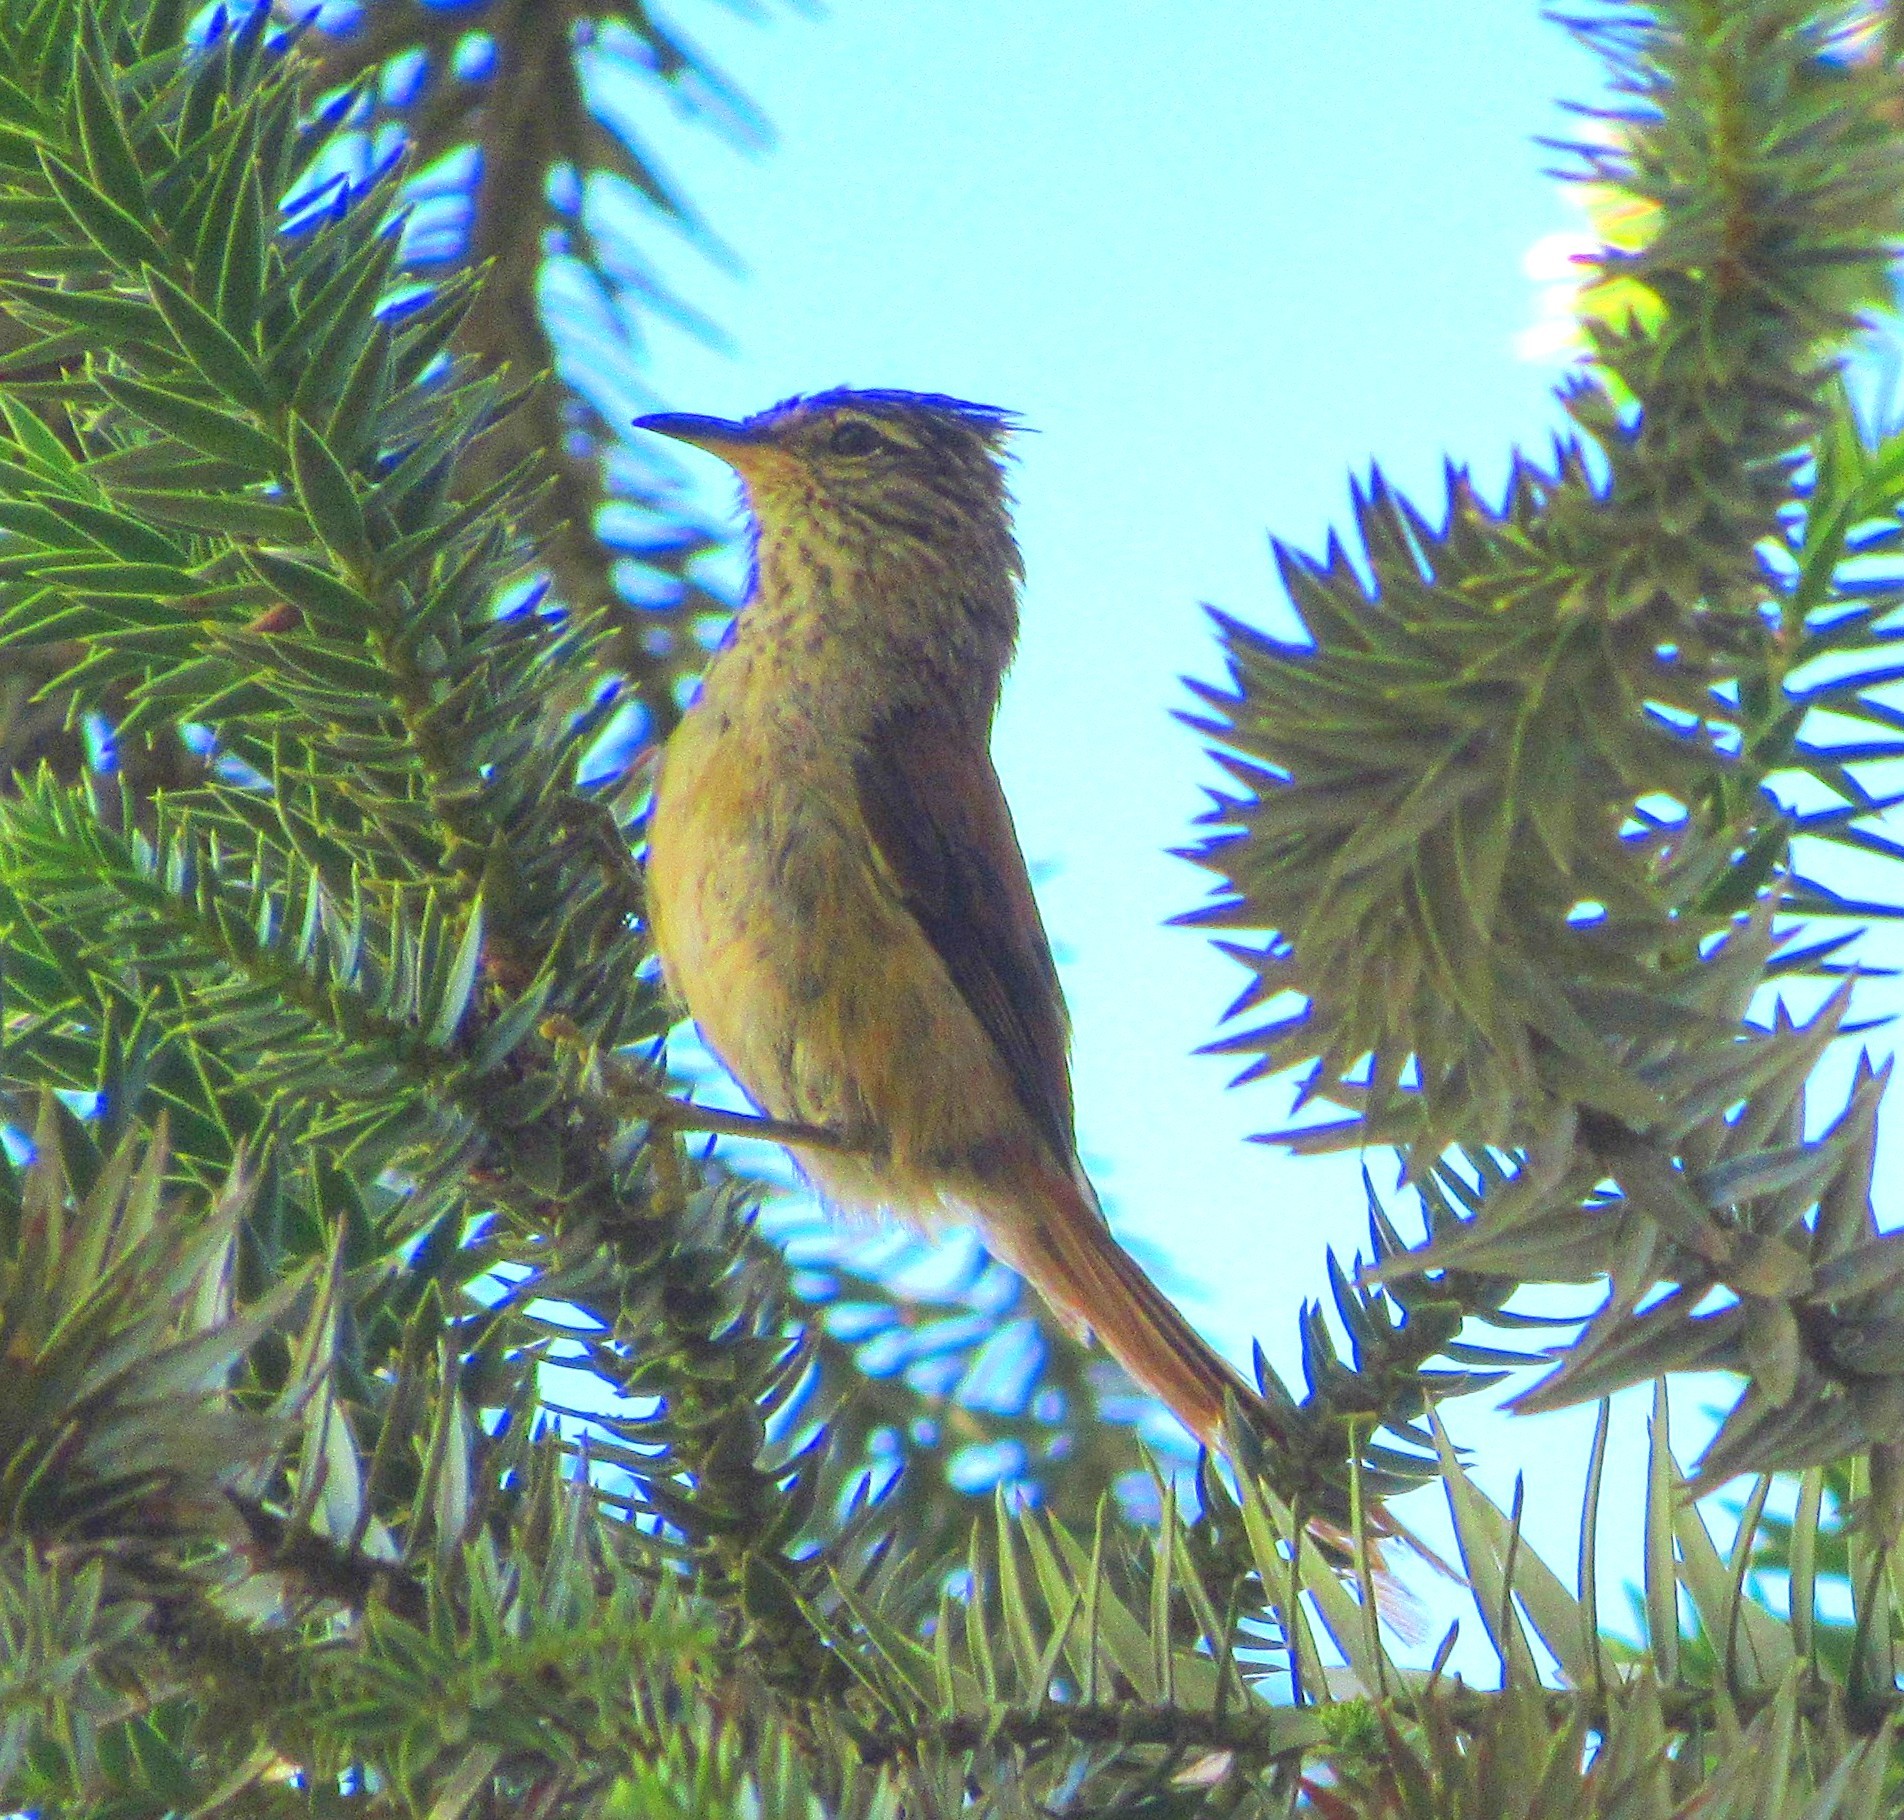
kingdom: Animalia
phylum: Chordata
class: Aves
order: Passeriformes
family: Furnariidae
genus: Leptasthenura
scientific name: Leptasthenura setaria
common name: Araucaria tit-spinetail
